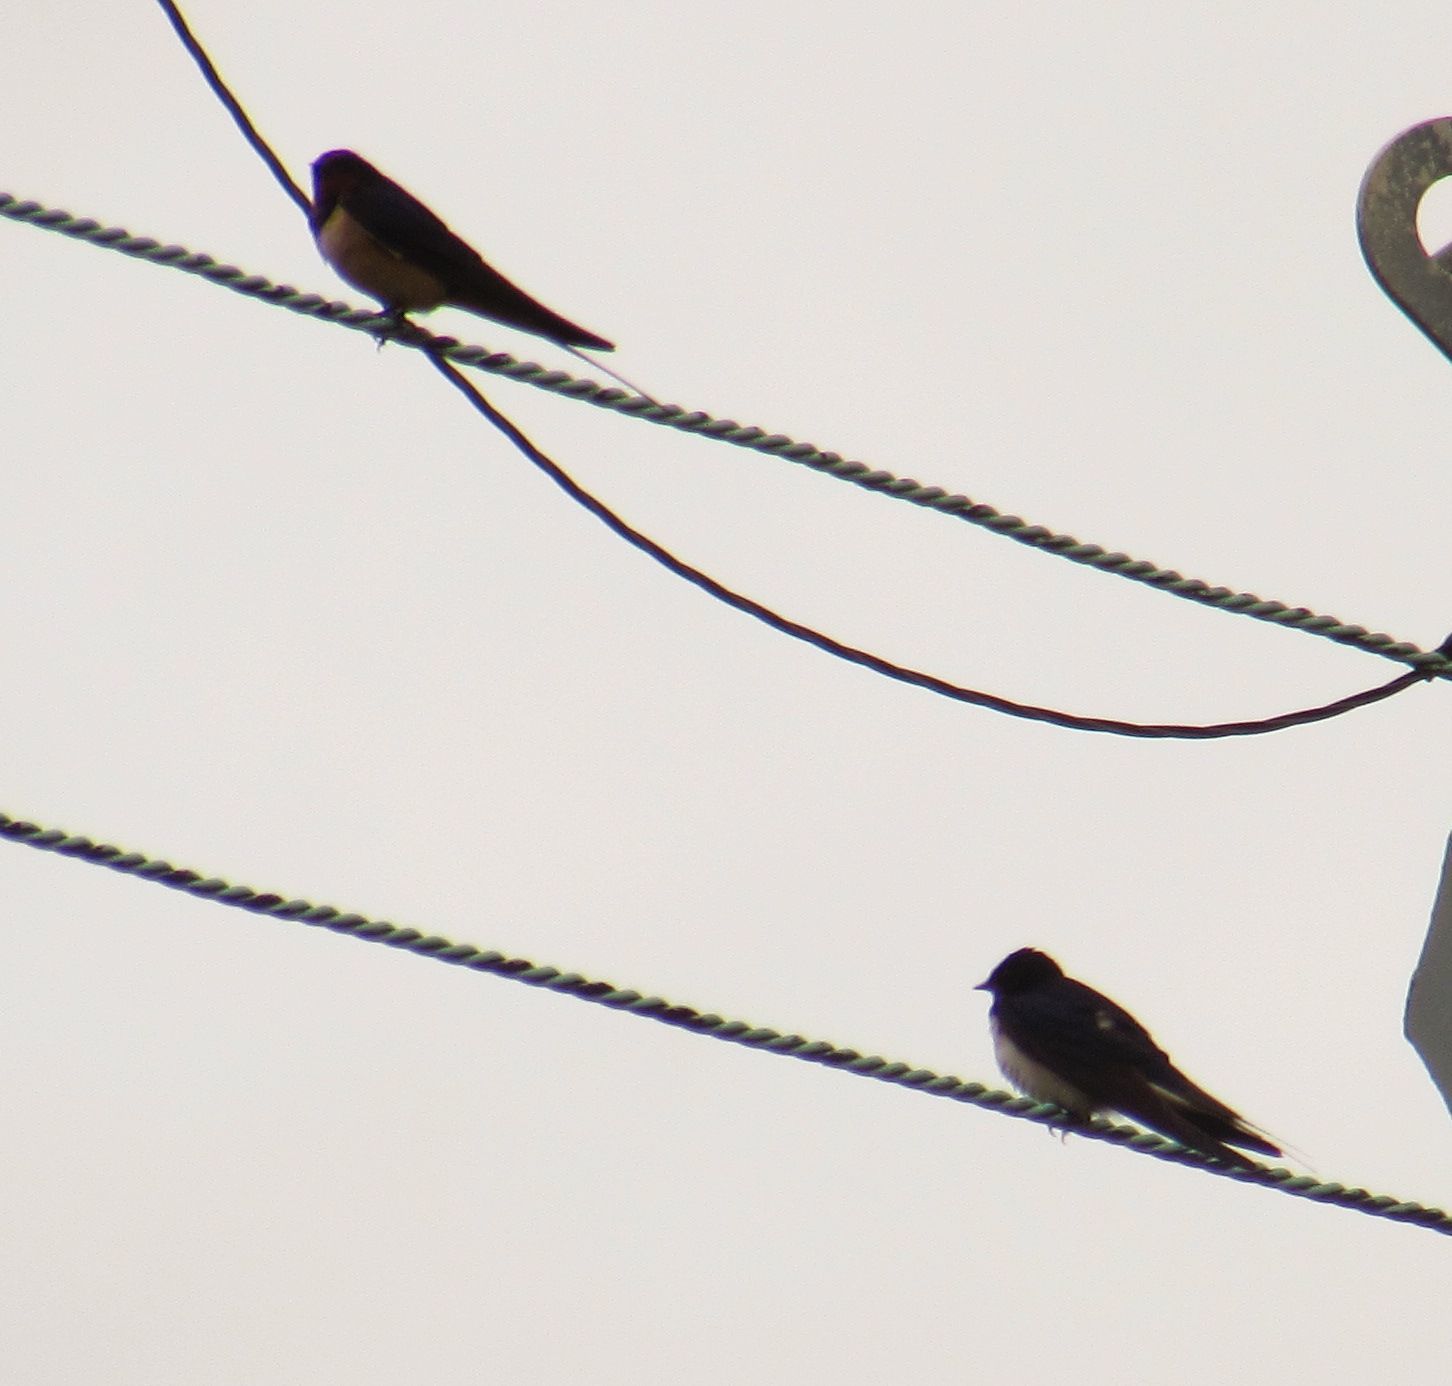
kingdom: Animalia
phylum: Chordata
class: Aves
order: Passeriformes
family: Hirundinidae
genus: Hirundo
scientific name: Hirundo rustica
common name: Barn swallow
